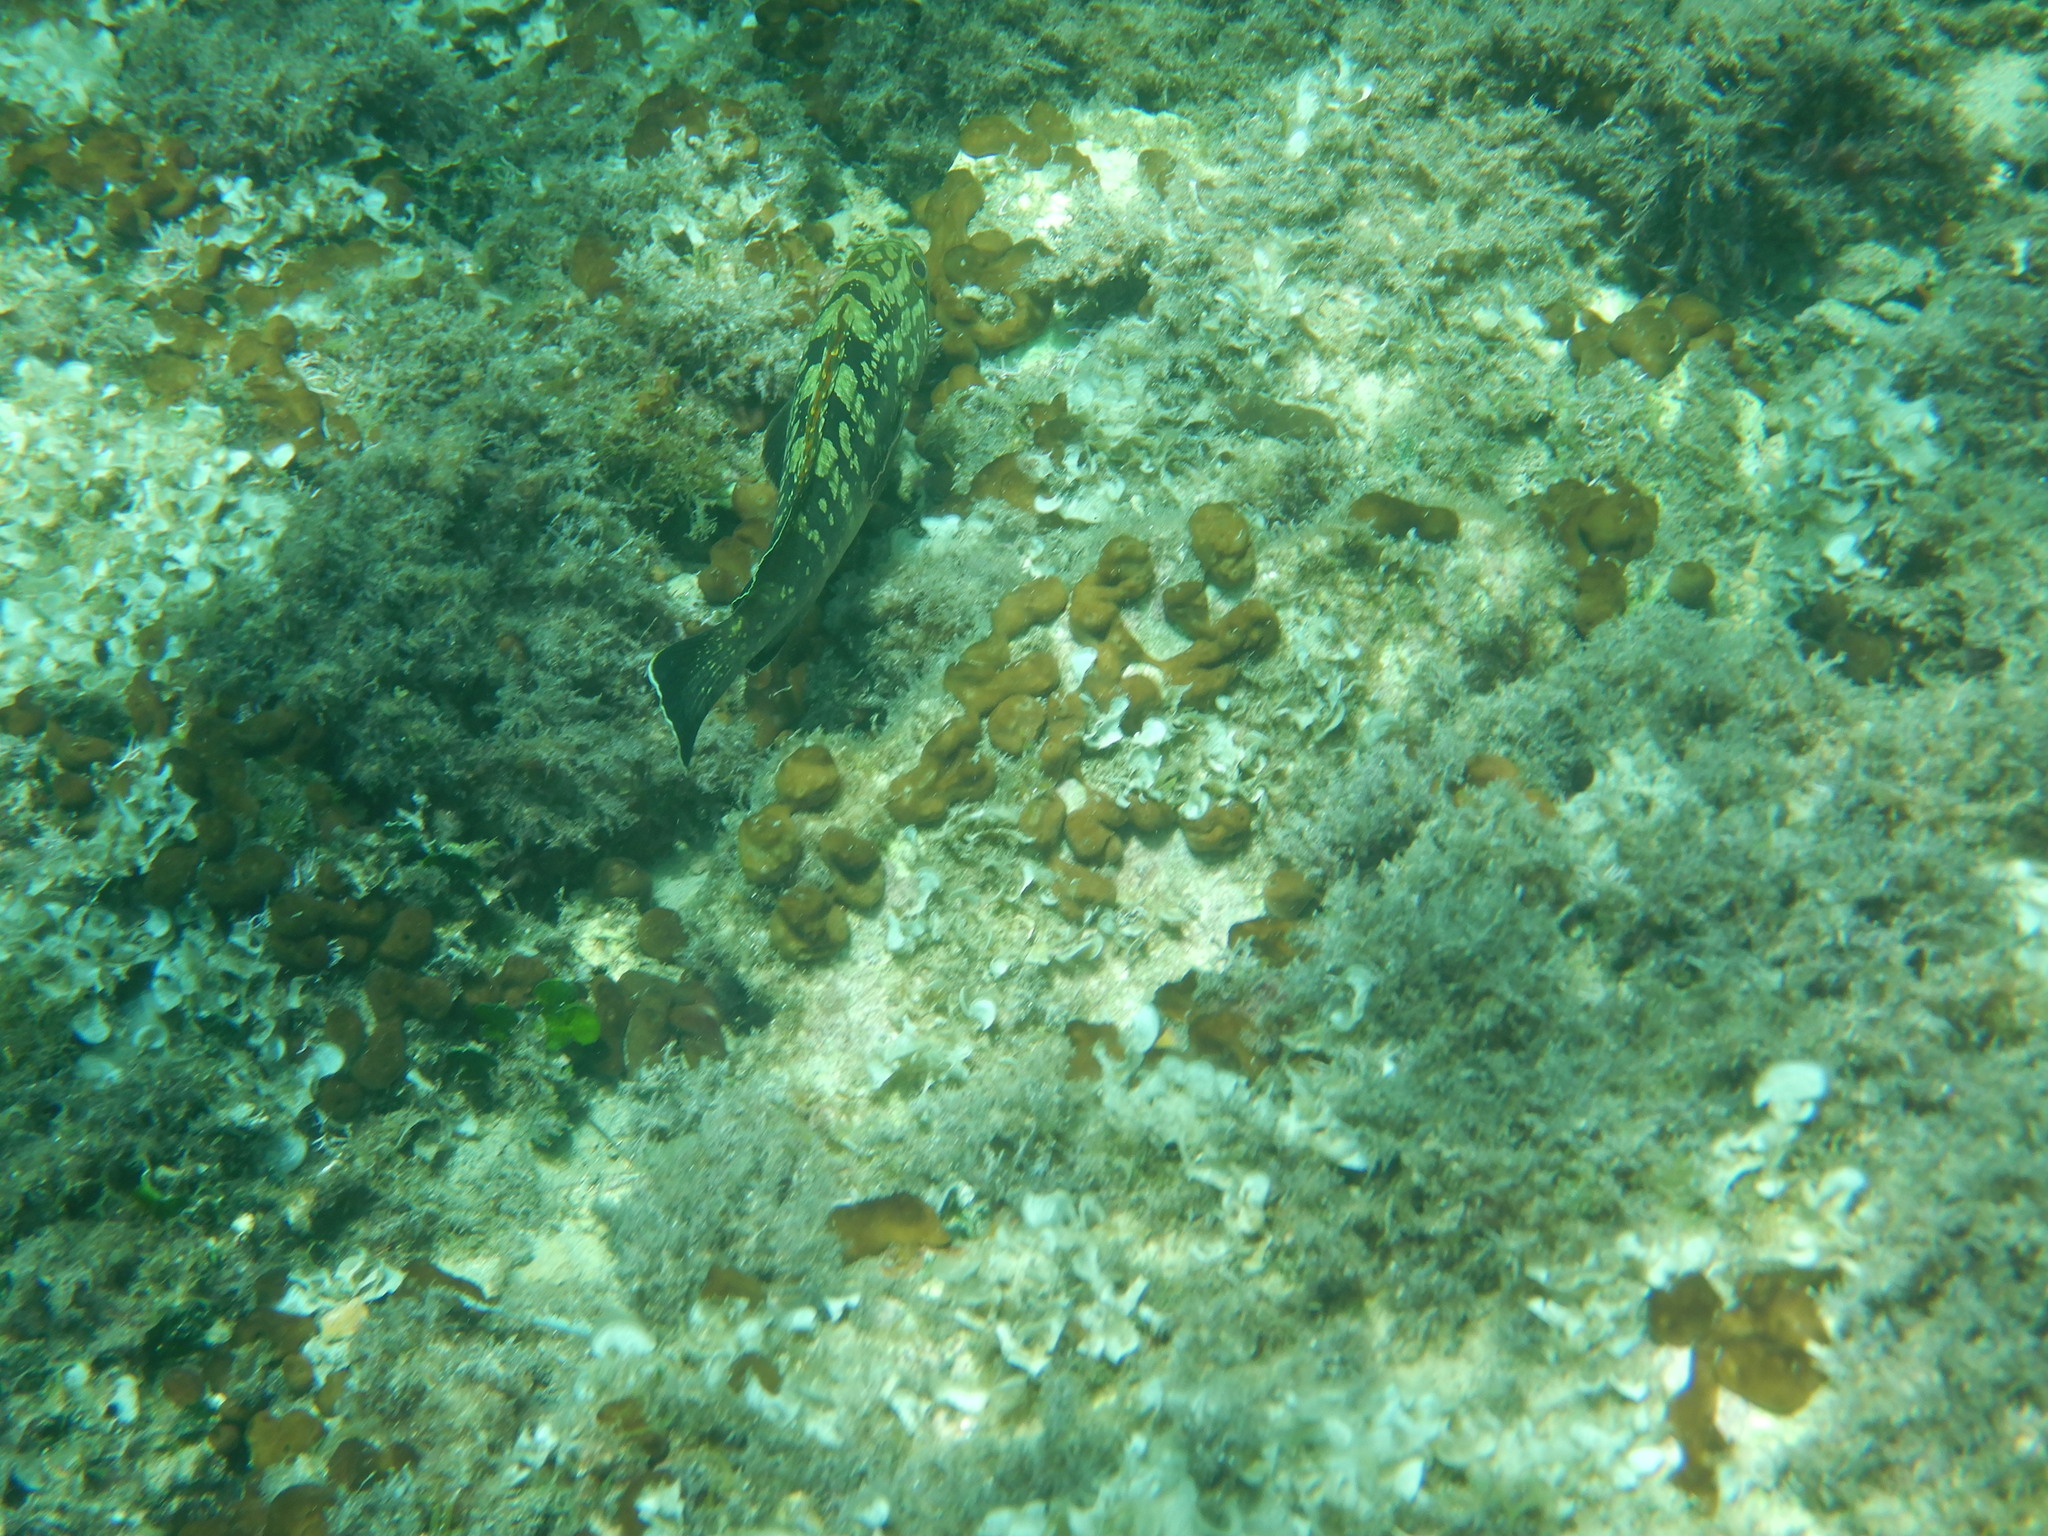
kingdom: Animalia
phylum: Chordata
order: Perciformes
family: Serranidae
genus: Epinephelus
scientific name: Epinephelus marginatus
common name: Dusky grouper
